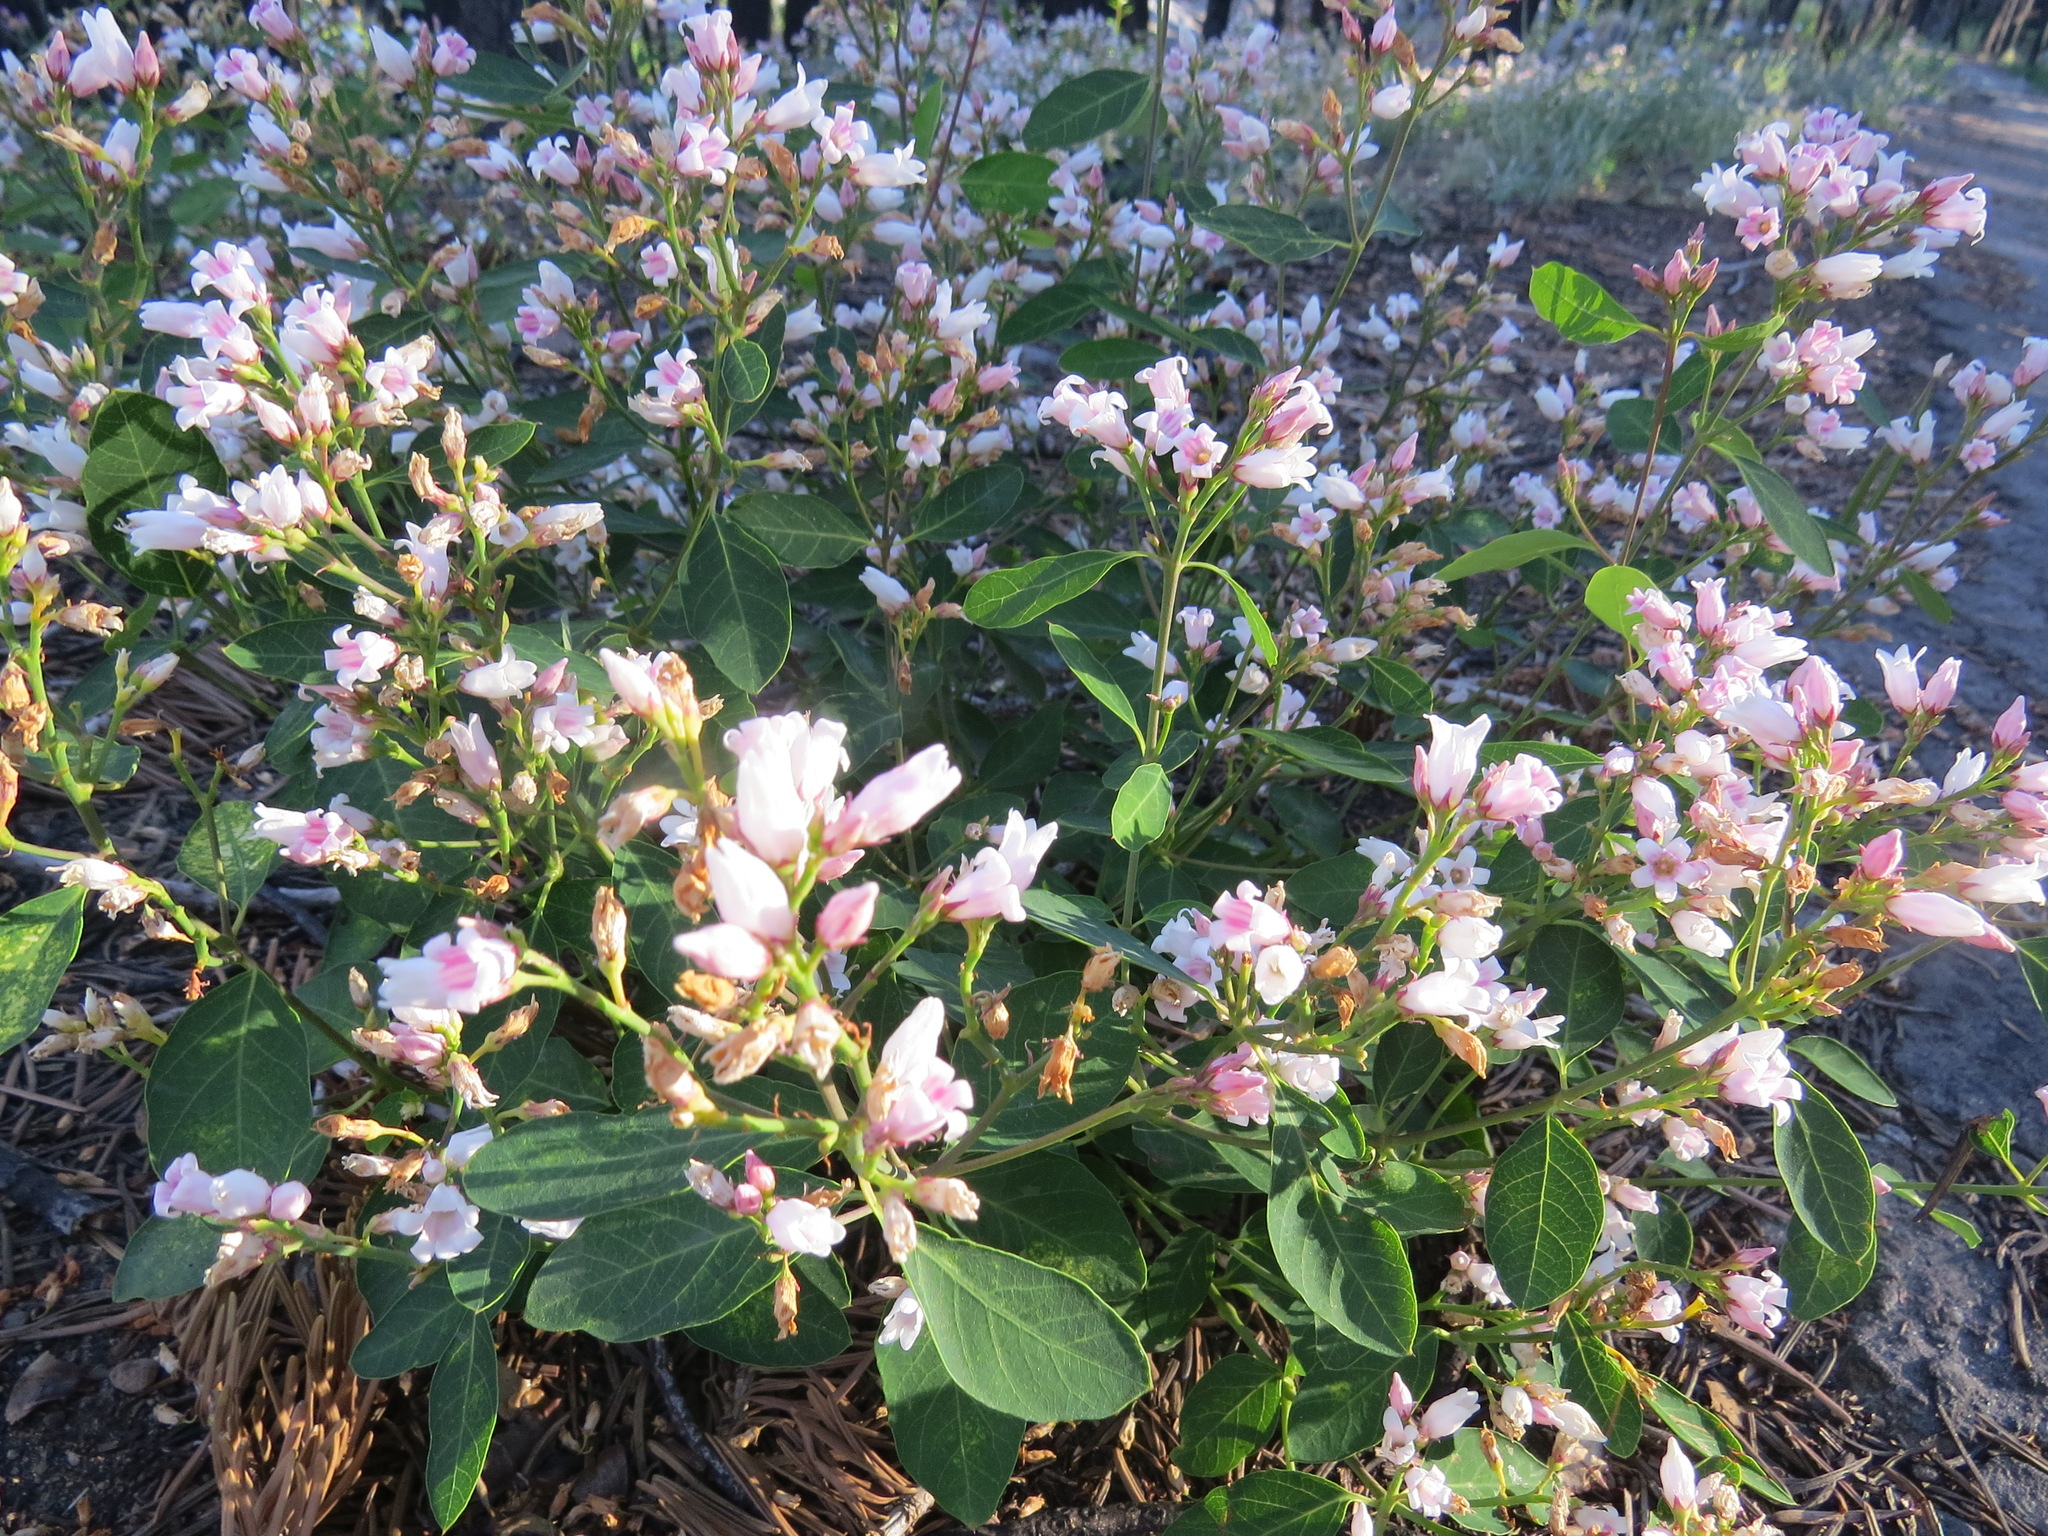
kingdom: Plantae
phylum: Tracheophyta
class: Magnoliopsida
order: Gentianales
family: Apocynaceae
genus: Apocynum
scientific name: Apocynum androsaemifolium
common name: Spreading dogbane
